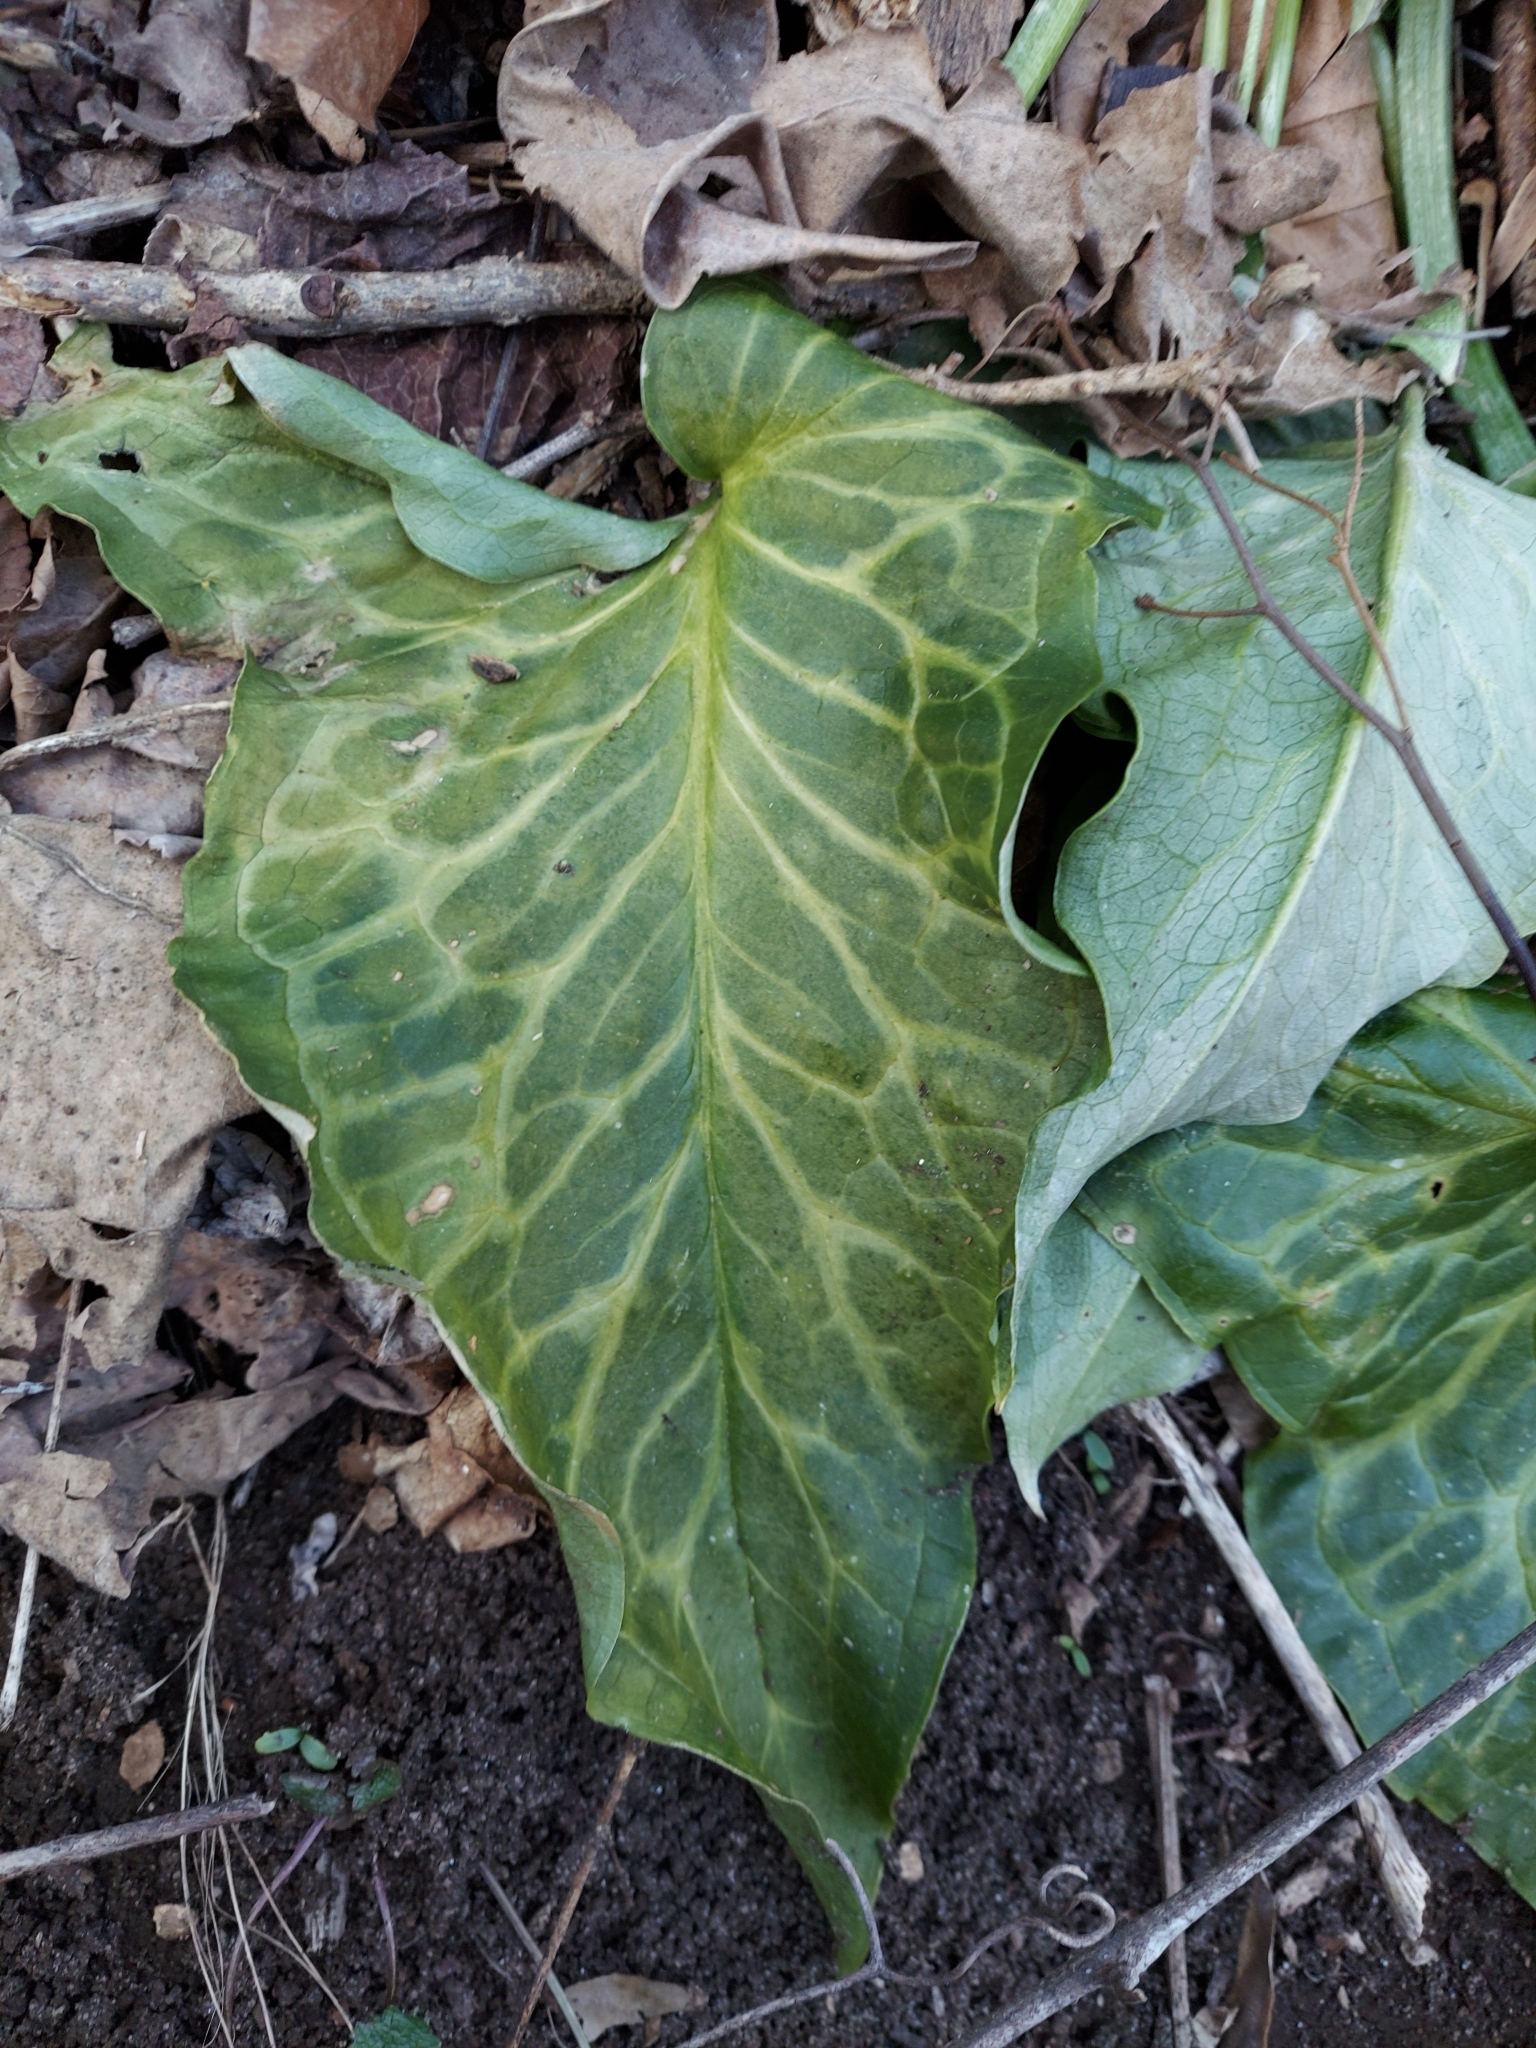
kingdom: Plantae
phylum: Tracheophyta
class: Liliopsida
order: Alismatales
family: Araceae
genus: Arum
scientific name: Arum italicum
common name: Italian lords-and-ladies
